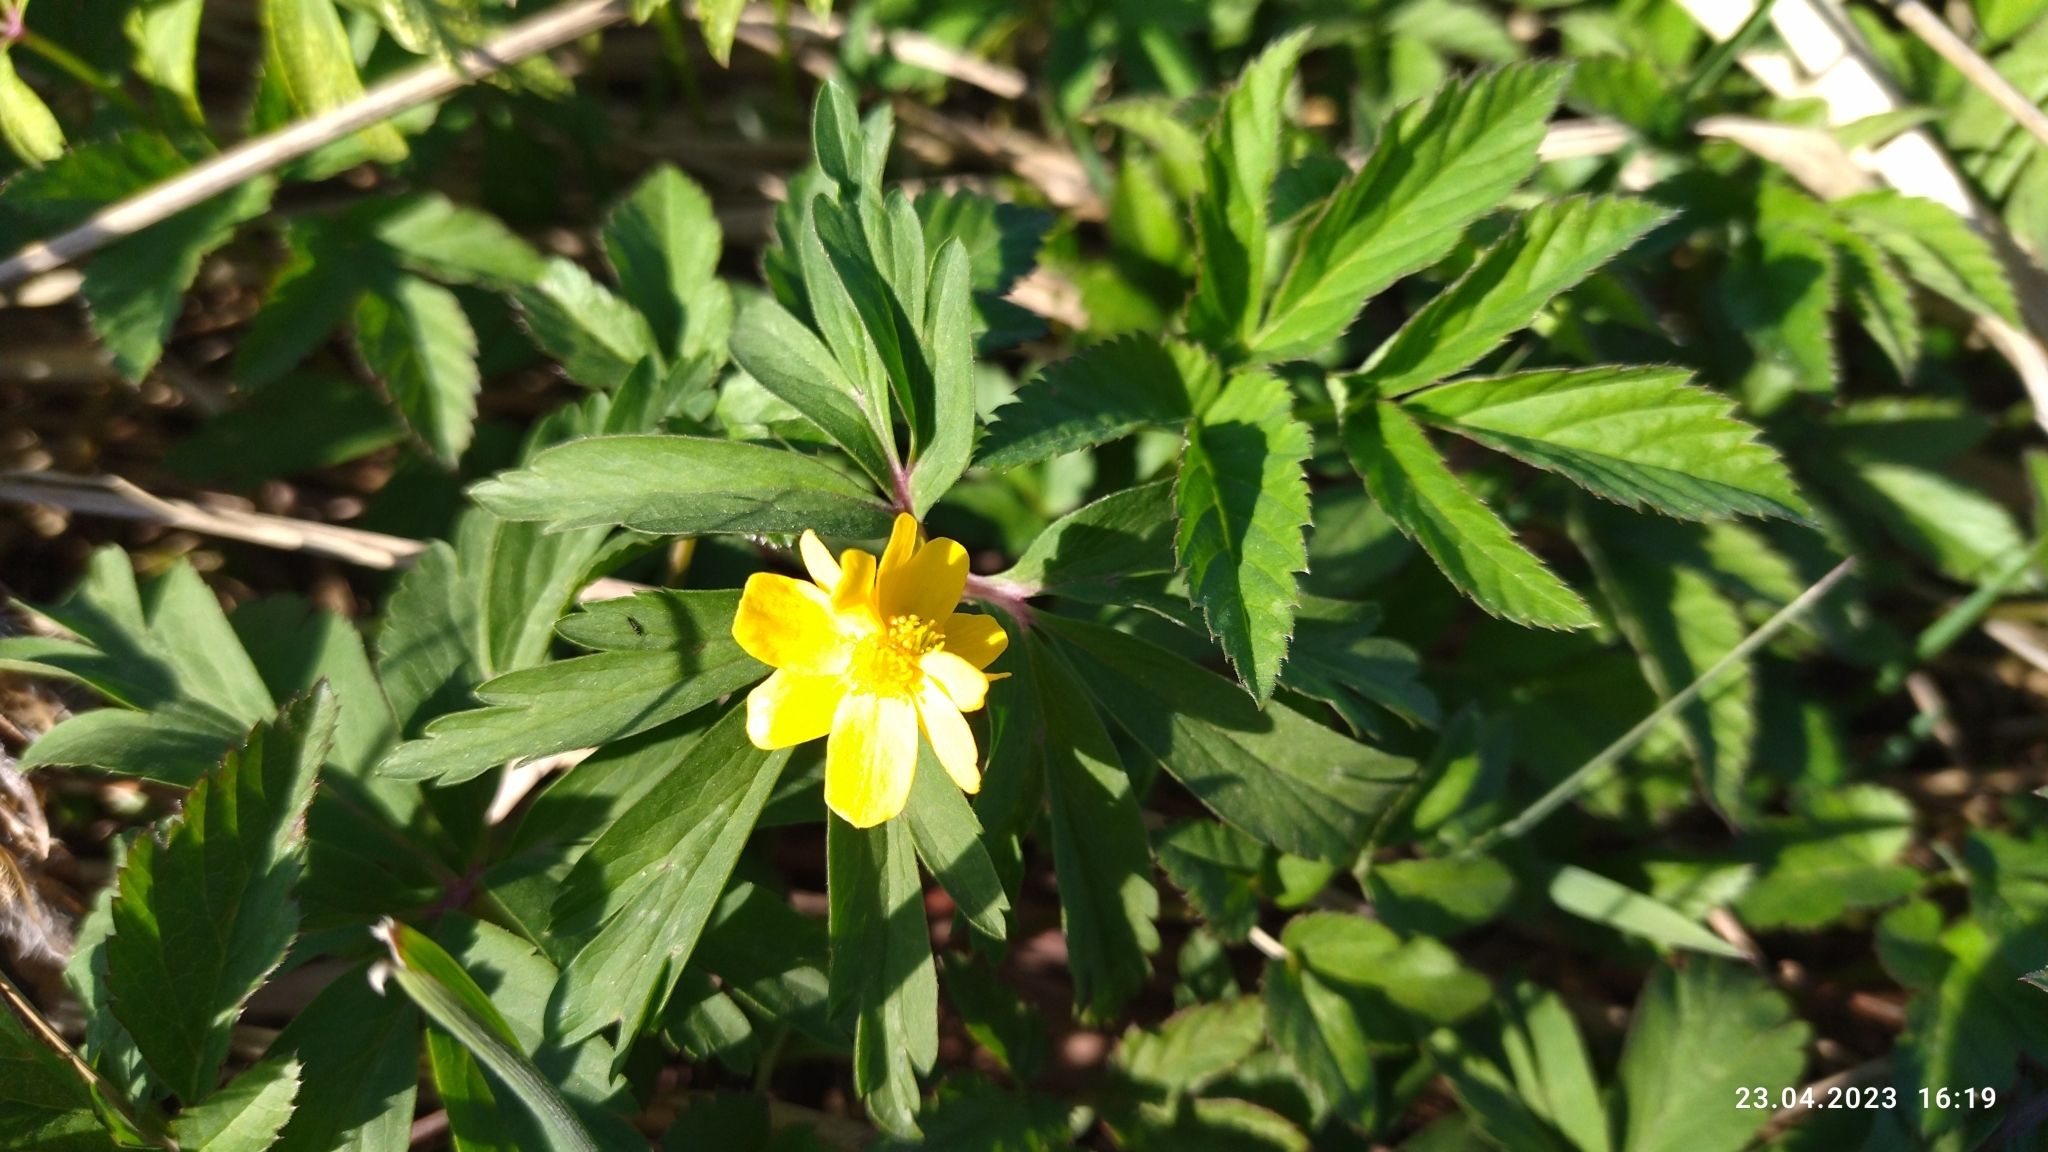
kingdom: Plantae
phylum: Tracheophyta
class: Magnoliopsida
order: Ranunculales
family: Ranunculaceae
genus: Anemone
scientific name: Anemone ranunculoides
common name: Yellow anemone
